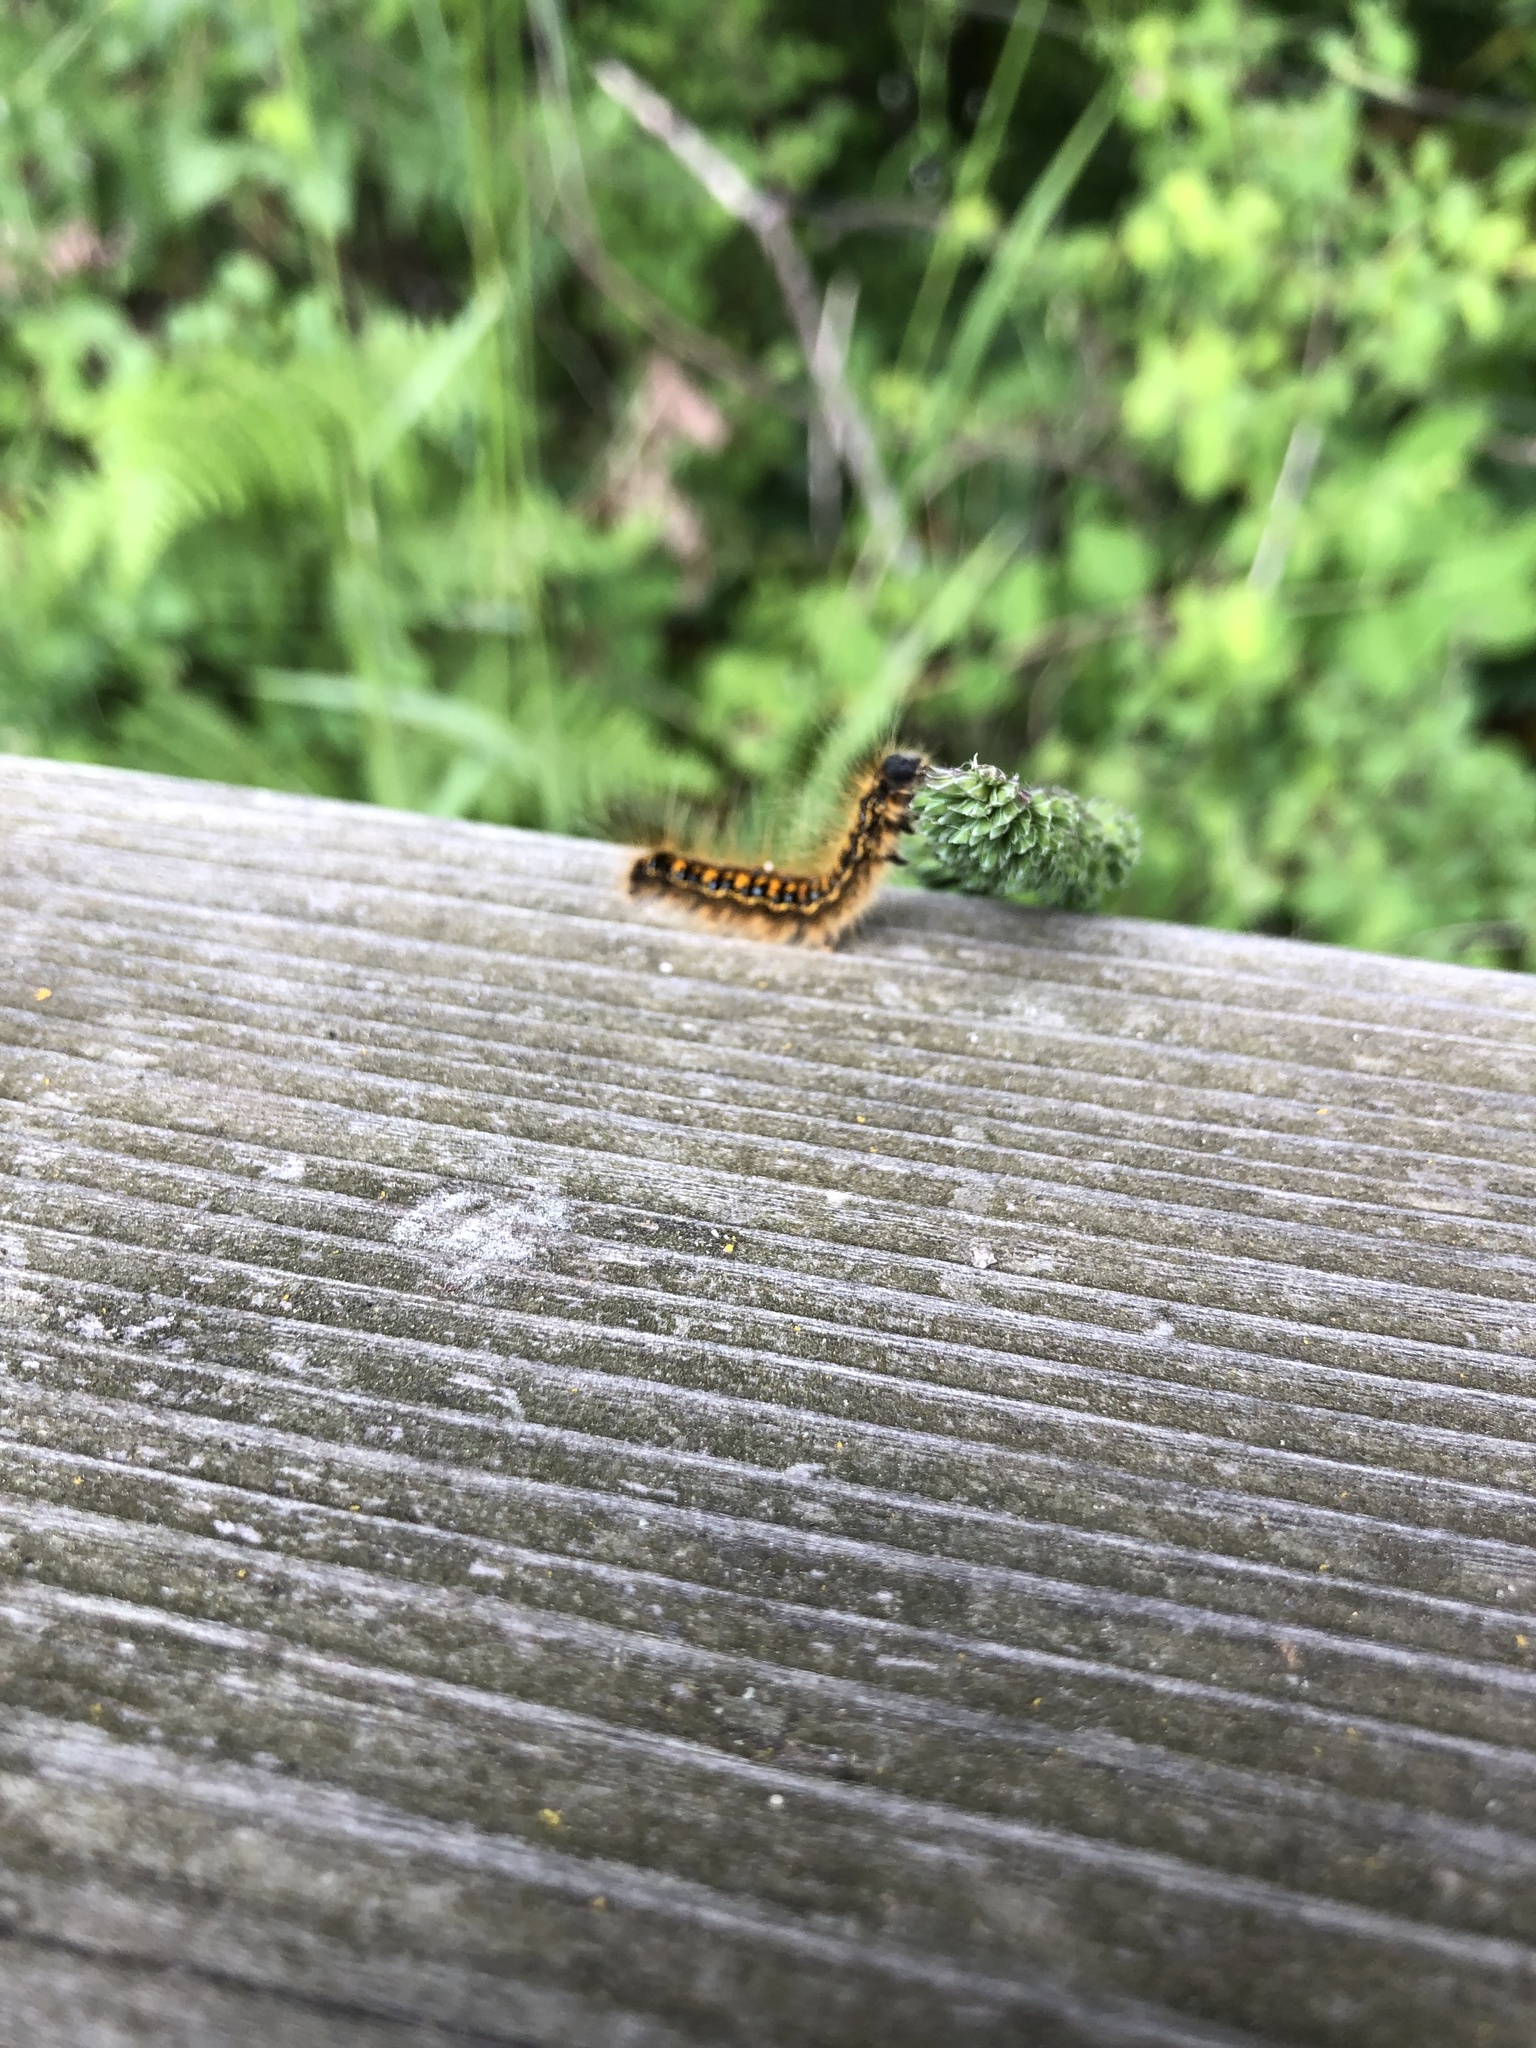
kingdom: Animalia
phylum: Arthropoda
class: Insecta
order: Lepidoptera
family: Lasiocampidae
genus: Malacosoma
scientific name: Malacosoma californica
